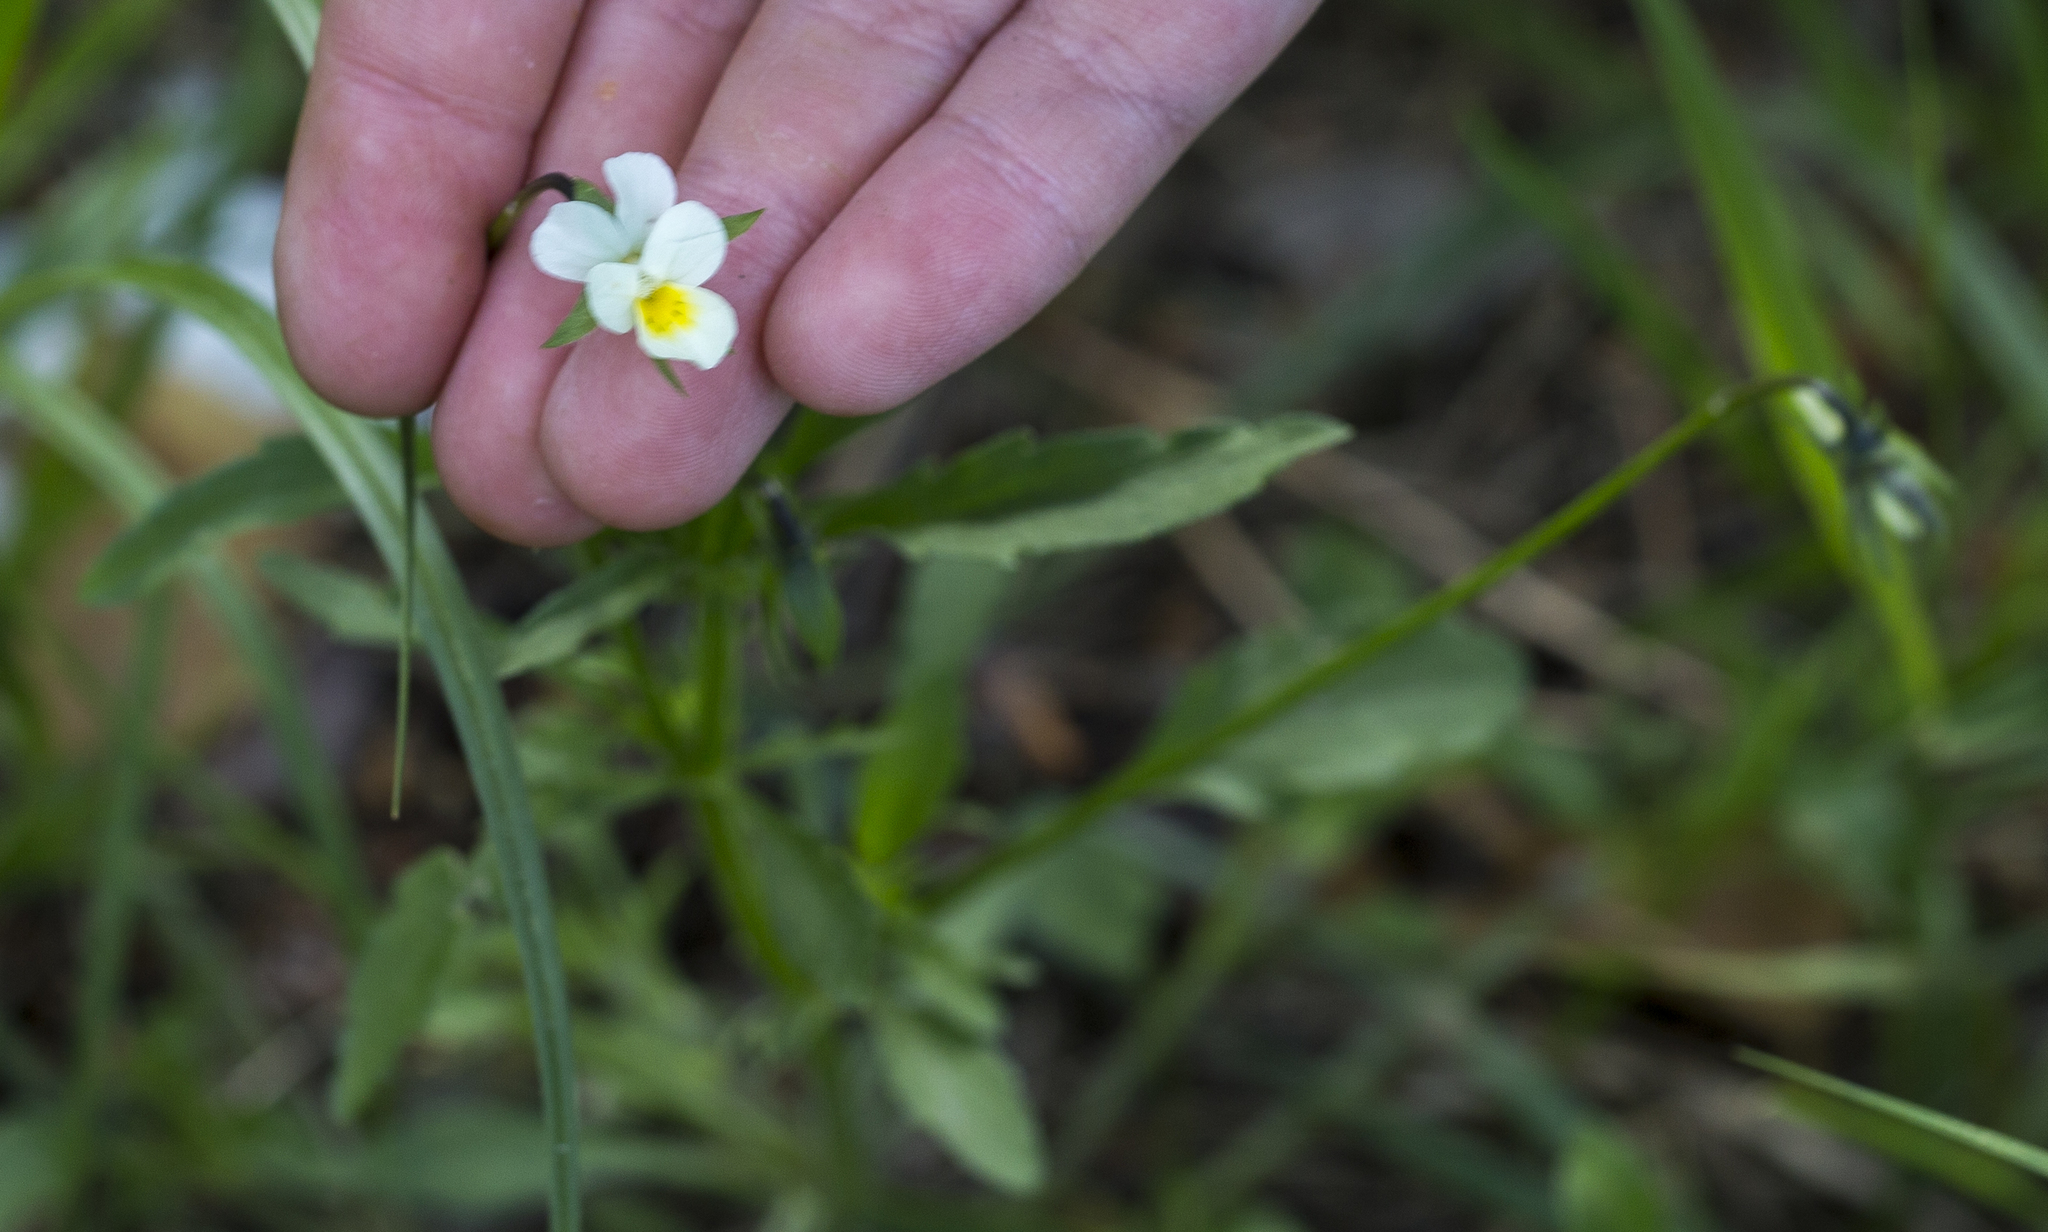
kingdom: Plantae
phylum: Tracheophyta
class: Magnoliopsida
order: Malpighiales
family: Violaceae
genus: Viola
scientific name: Viola arvensis
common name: Field pansy
